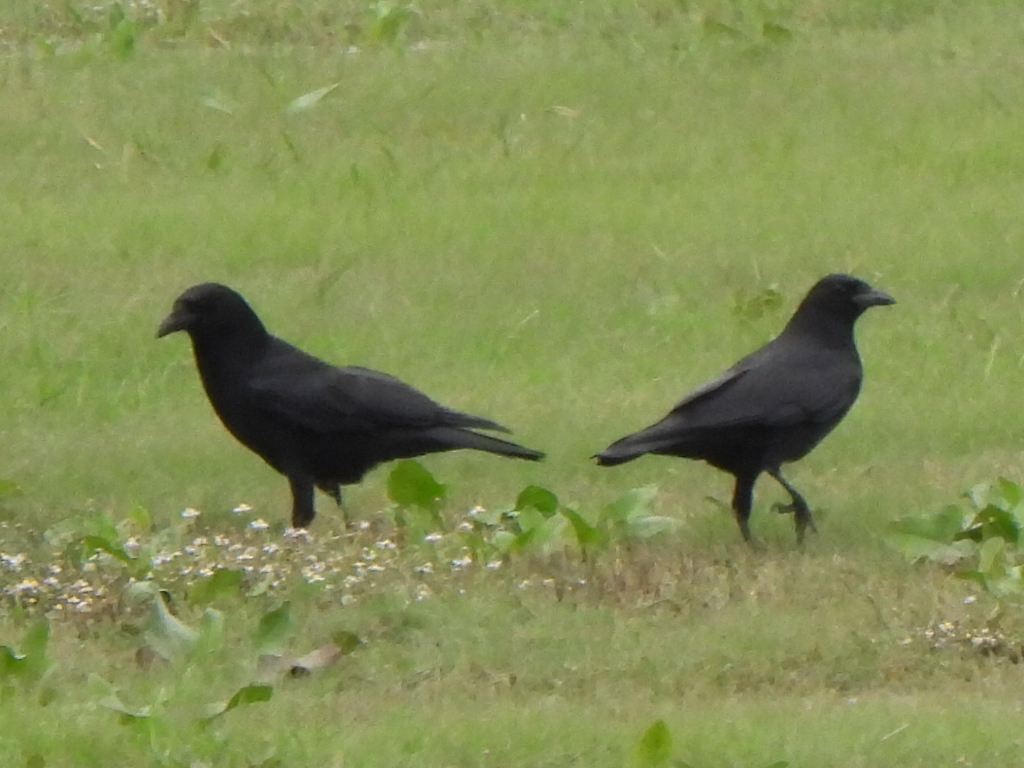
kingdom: Animalia
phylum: Chordata
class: Aves
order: Passeriformes
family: Corvidae
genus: Corvus
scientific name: Corvus brachyrhynchos
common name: American crow
